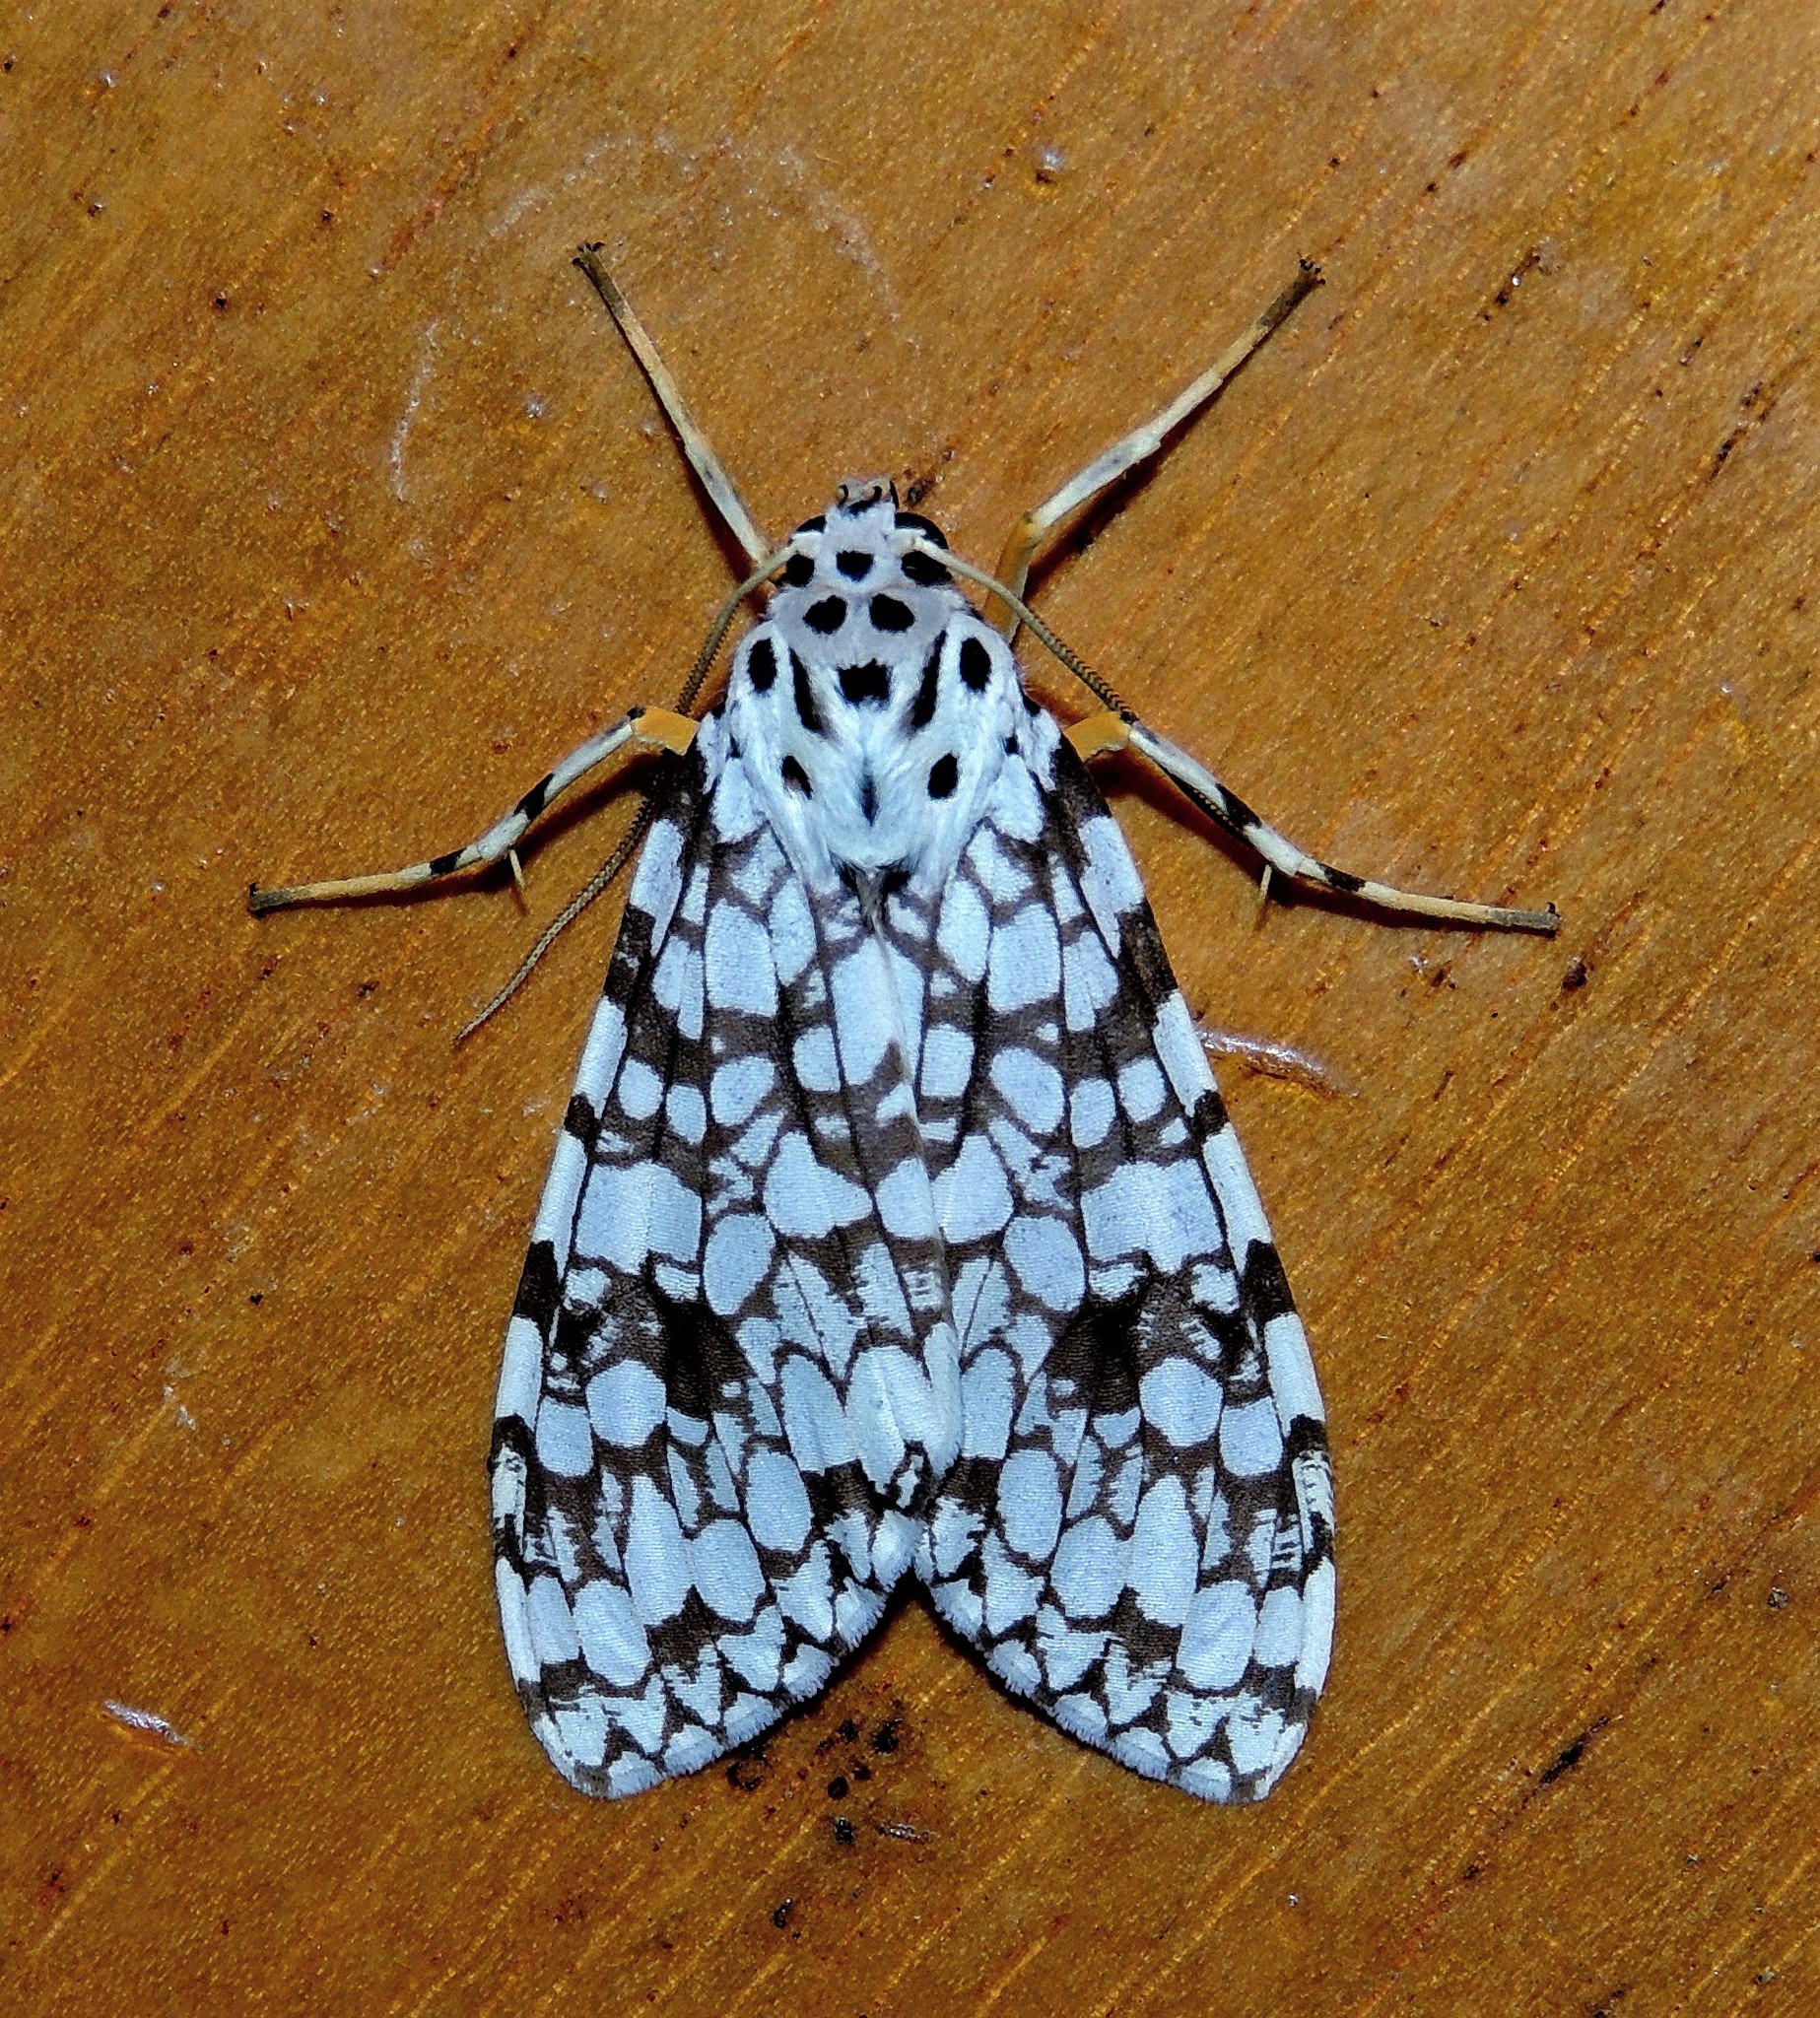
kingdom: Animalia
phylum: Arthropoda
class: Insecta
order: Lepidoptera
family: Erebidae
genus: Carales
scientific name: Carales astur
